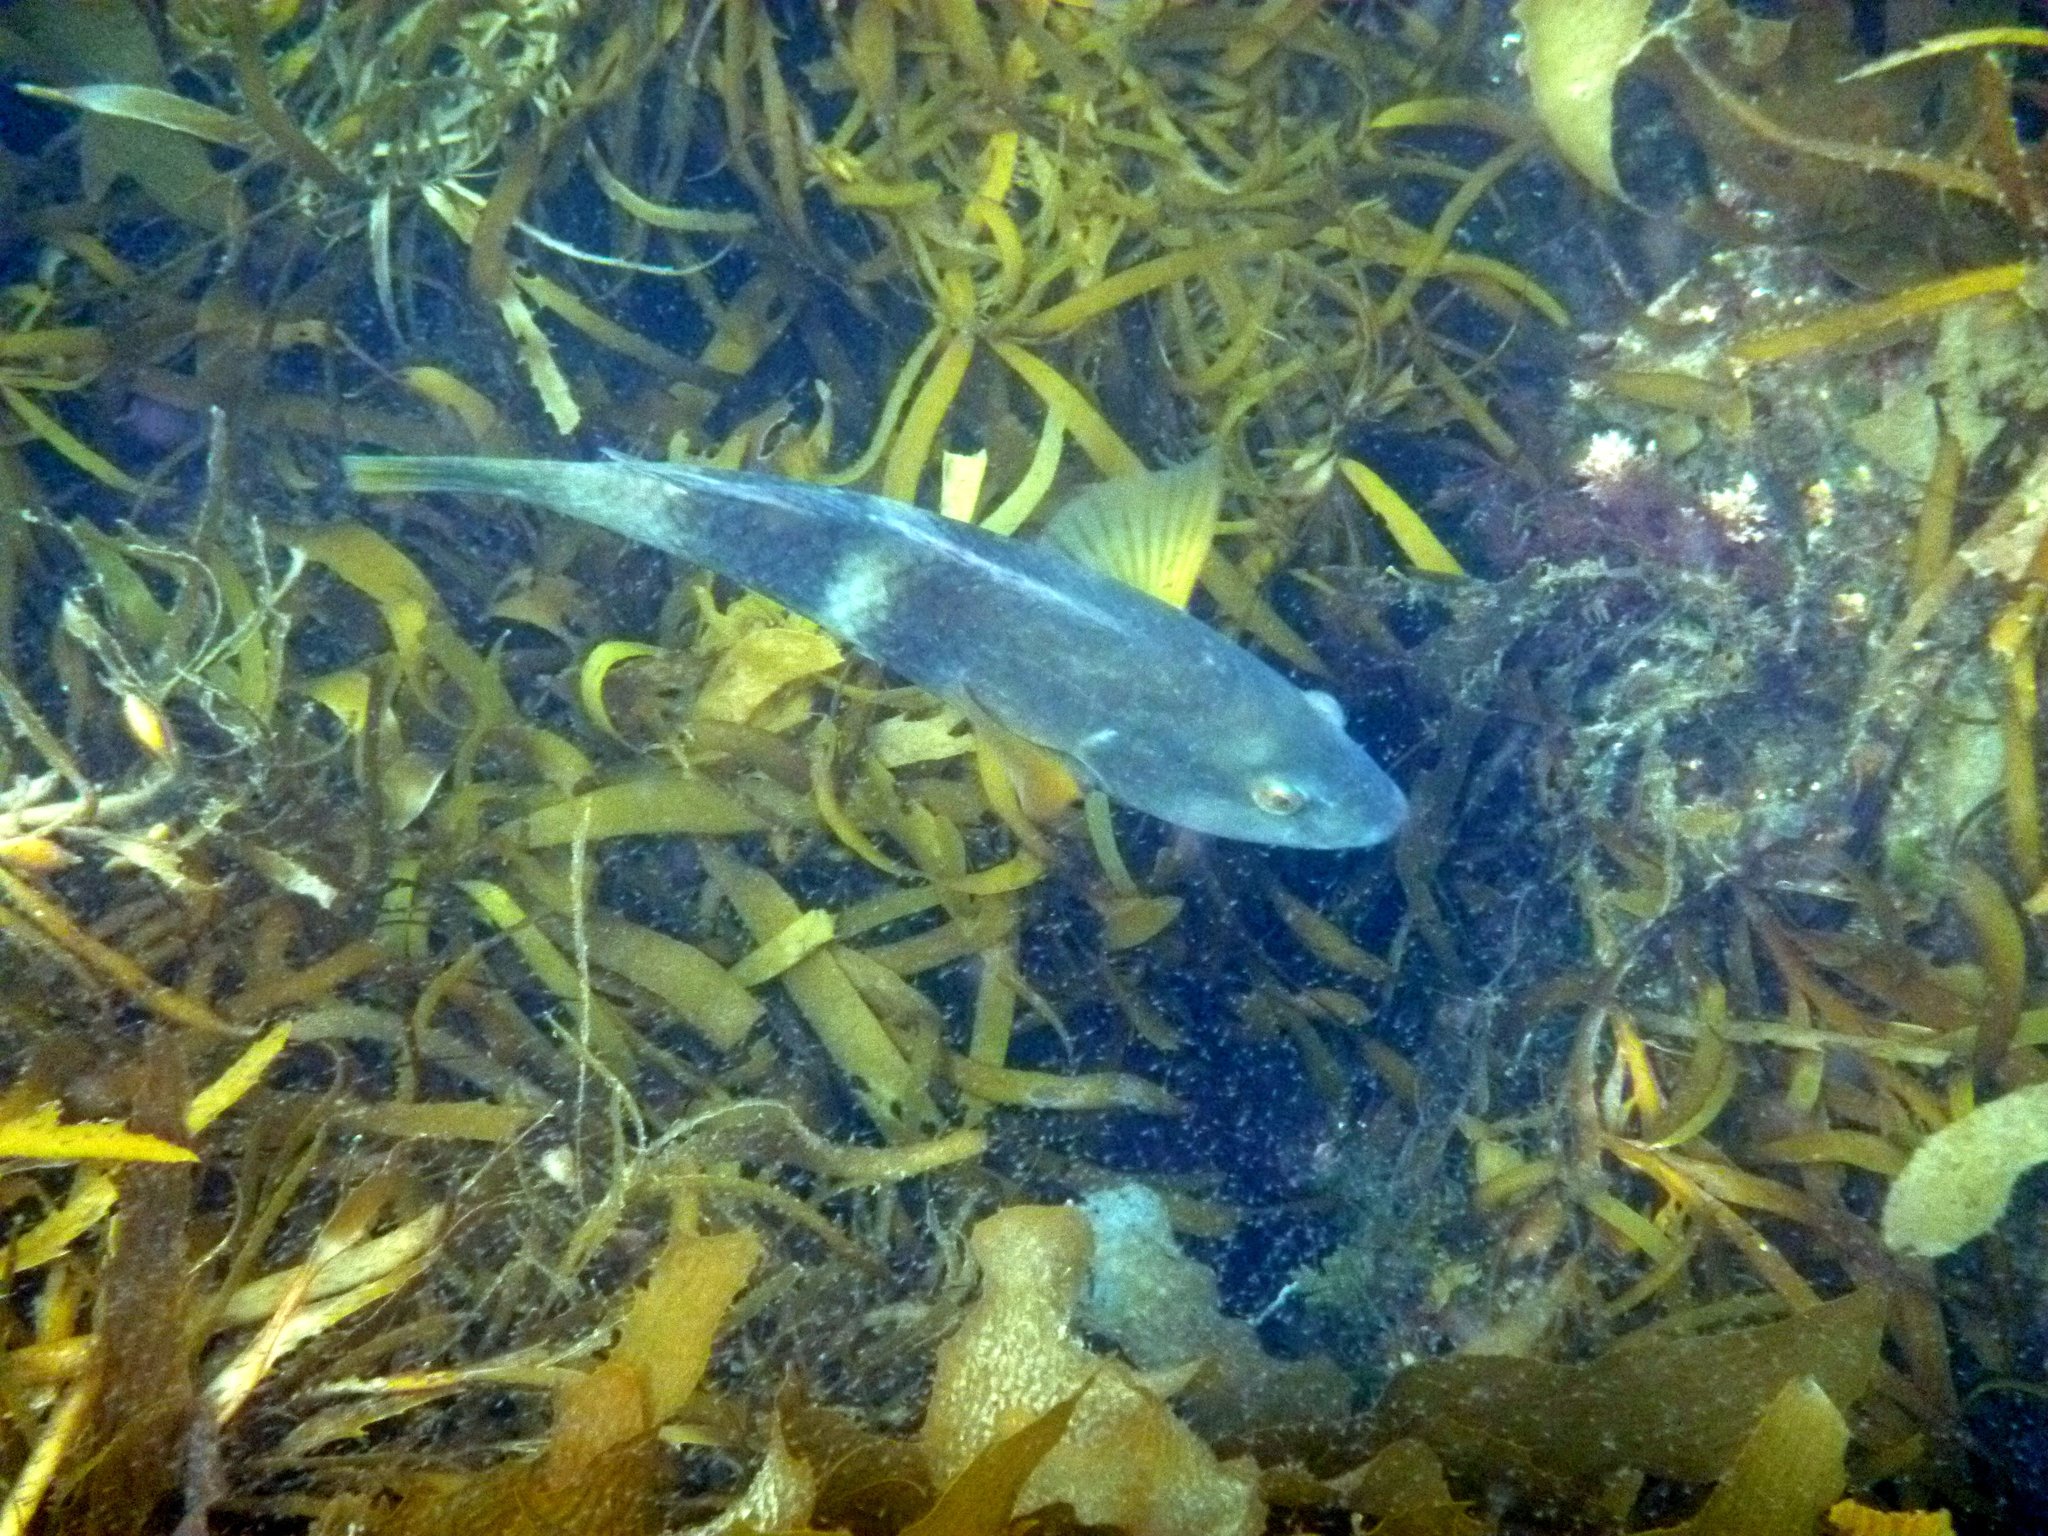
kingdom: Animalia
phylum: Chordata
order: Perciformes
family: Labridae
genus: Notolabrus
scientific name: Notolabrus tetricus
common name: Blue-throated parrotfish
